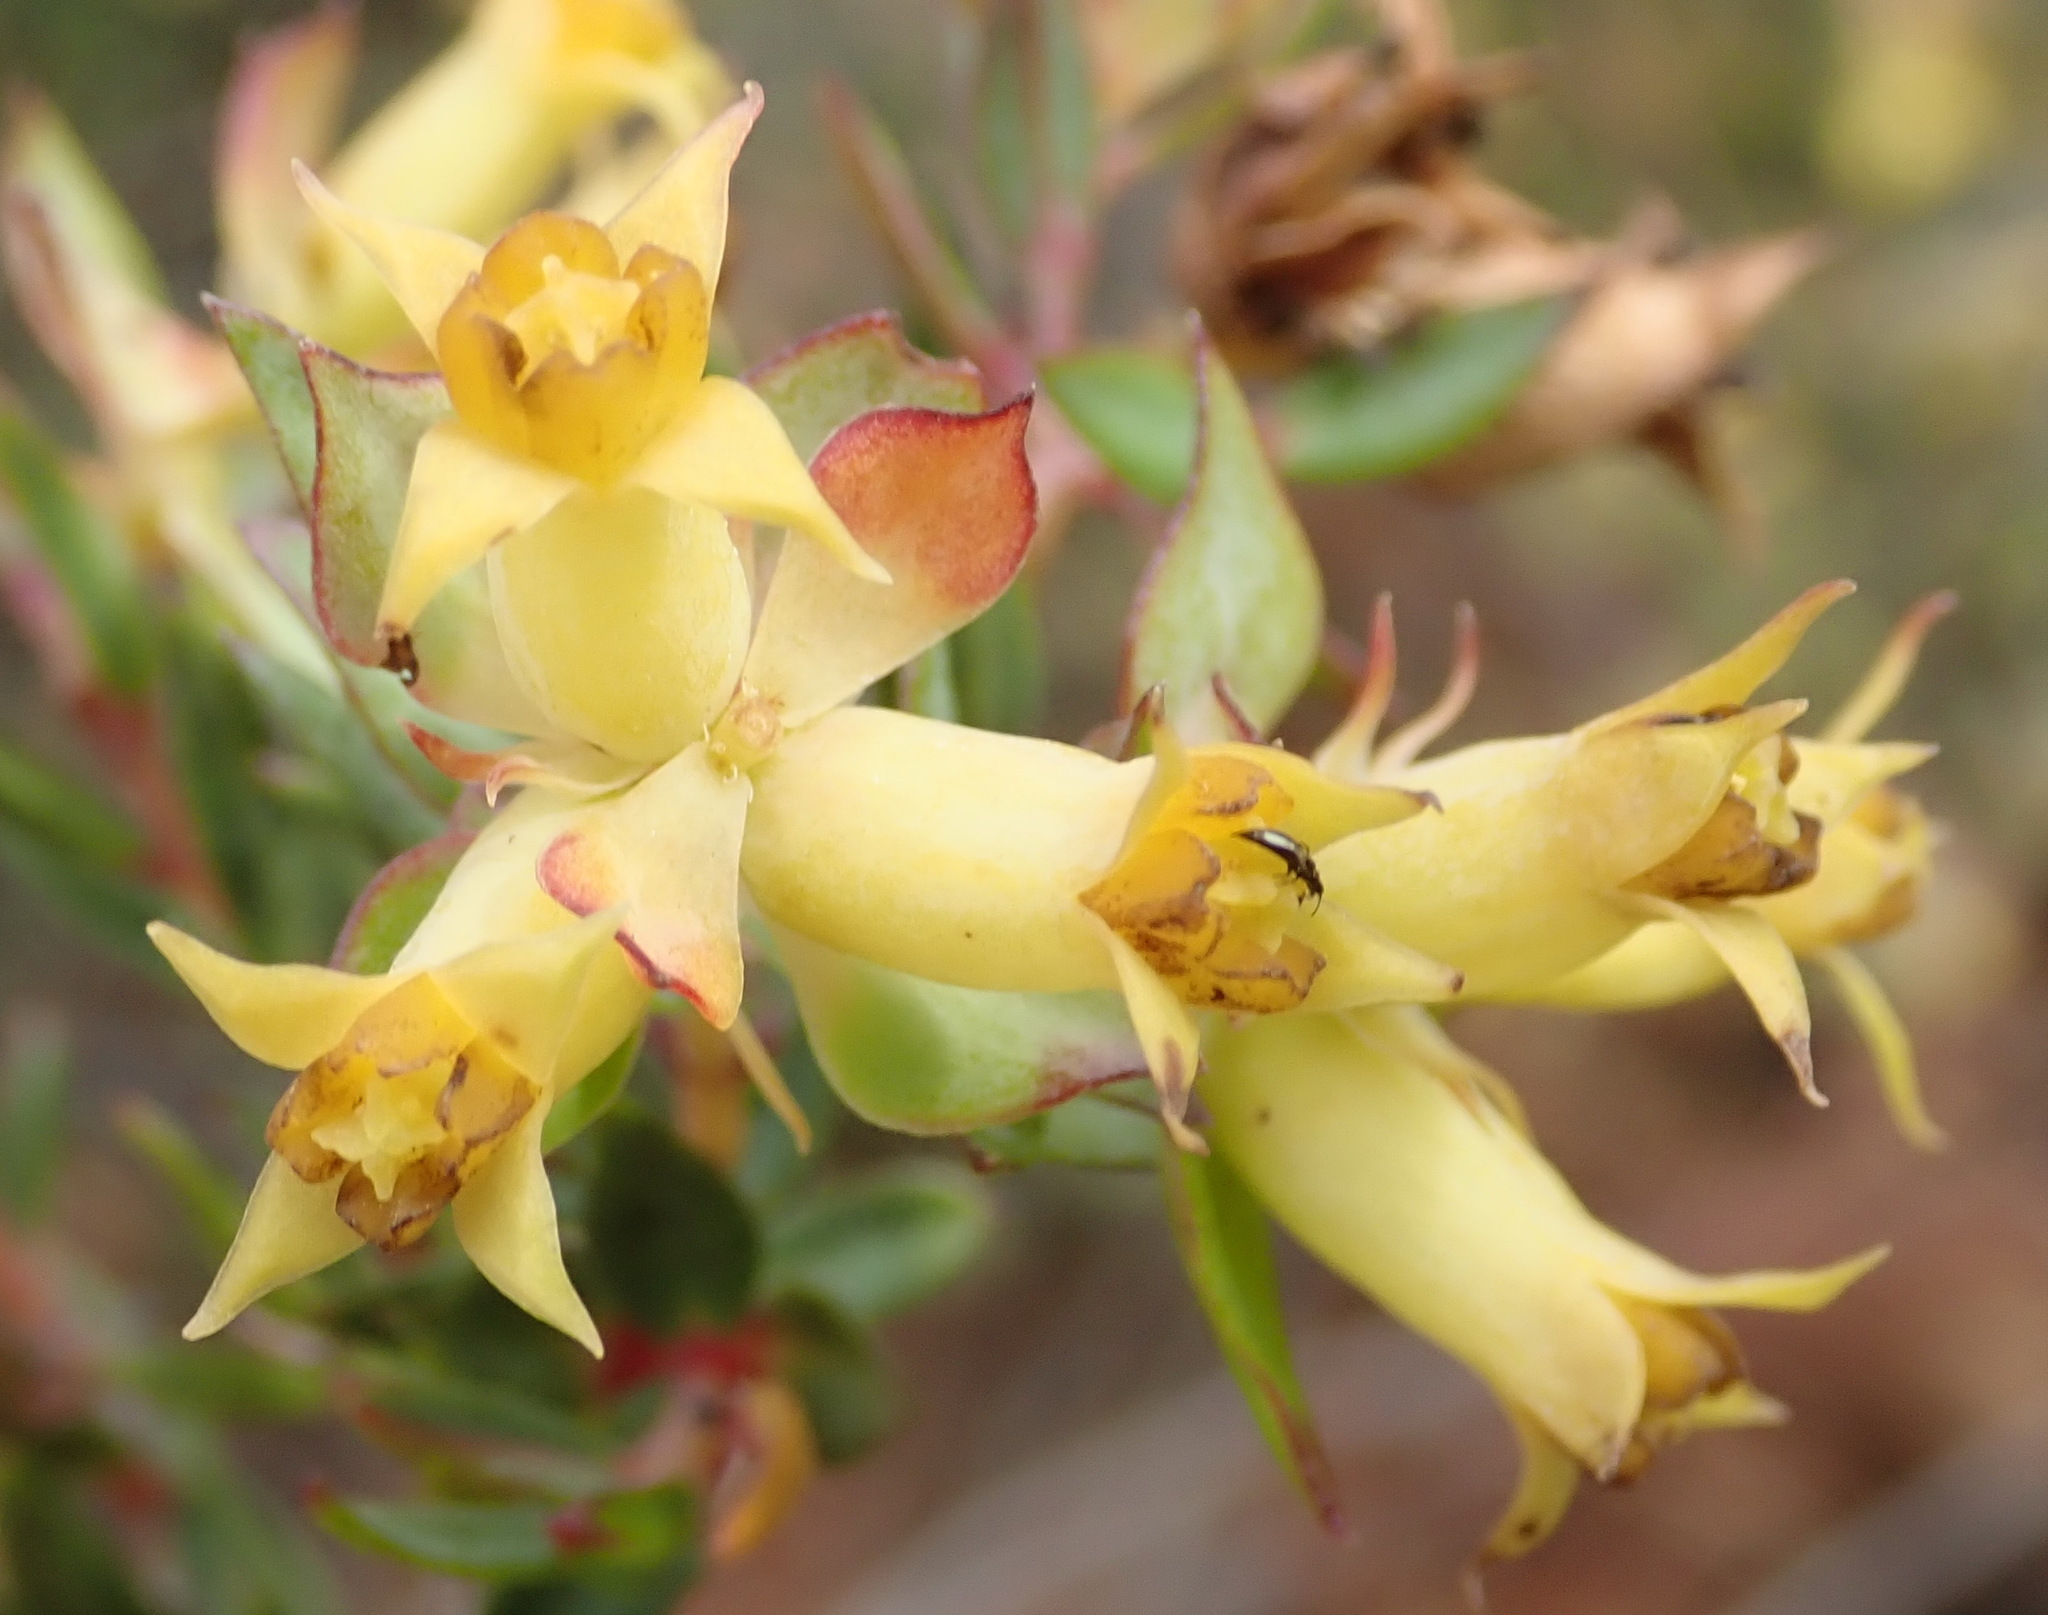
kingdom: Plantae
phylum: Tracheophyta
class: Magnoliopsida
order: Myrtales
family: Penaeaceae
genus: Penaea
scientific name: Penaea acutifolia
